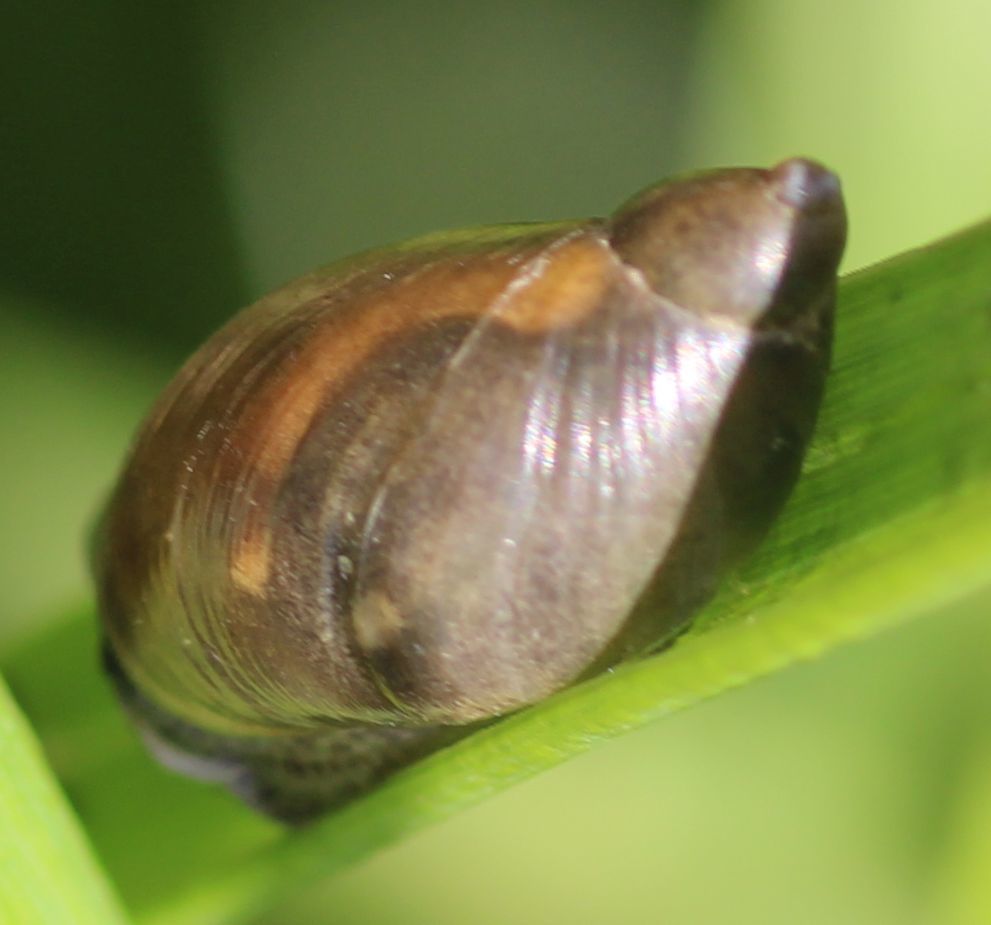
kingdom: Animalia
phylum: Mollusca
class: Gastropoda
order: Stylommatophora
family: Succineidae
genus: Succinea
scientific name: Succinea putris
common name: European ambersnail
